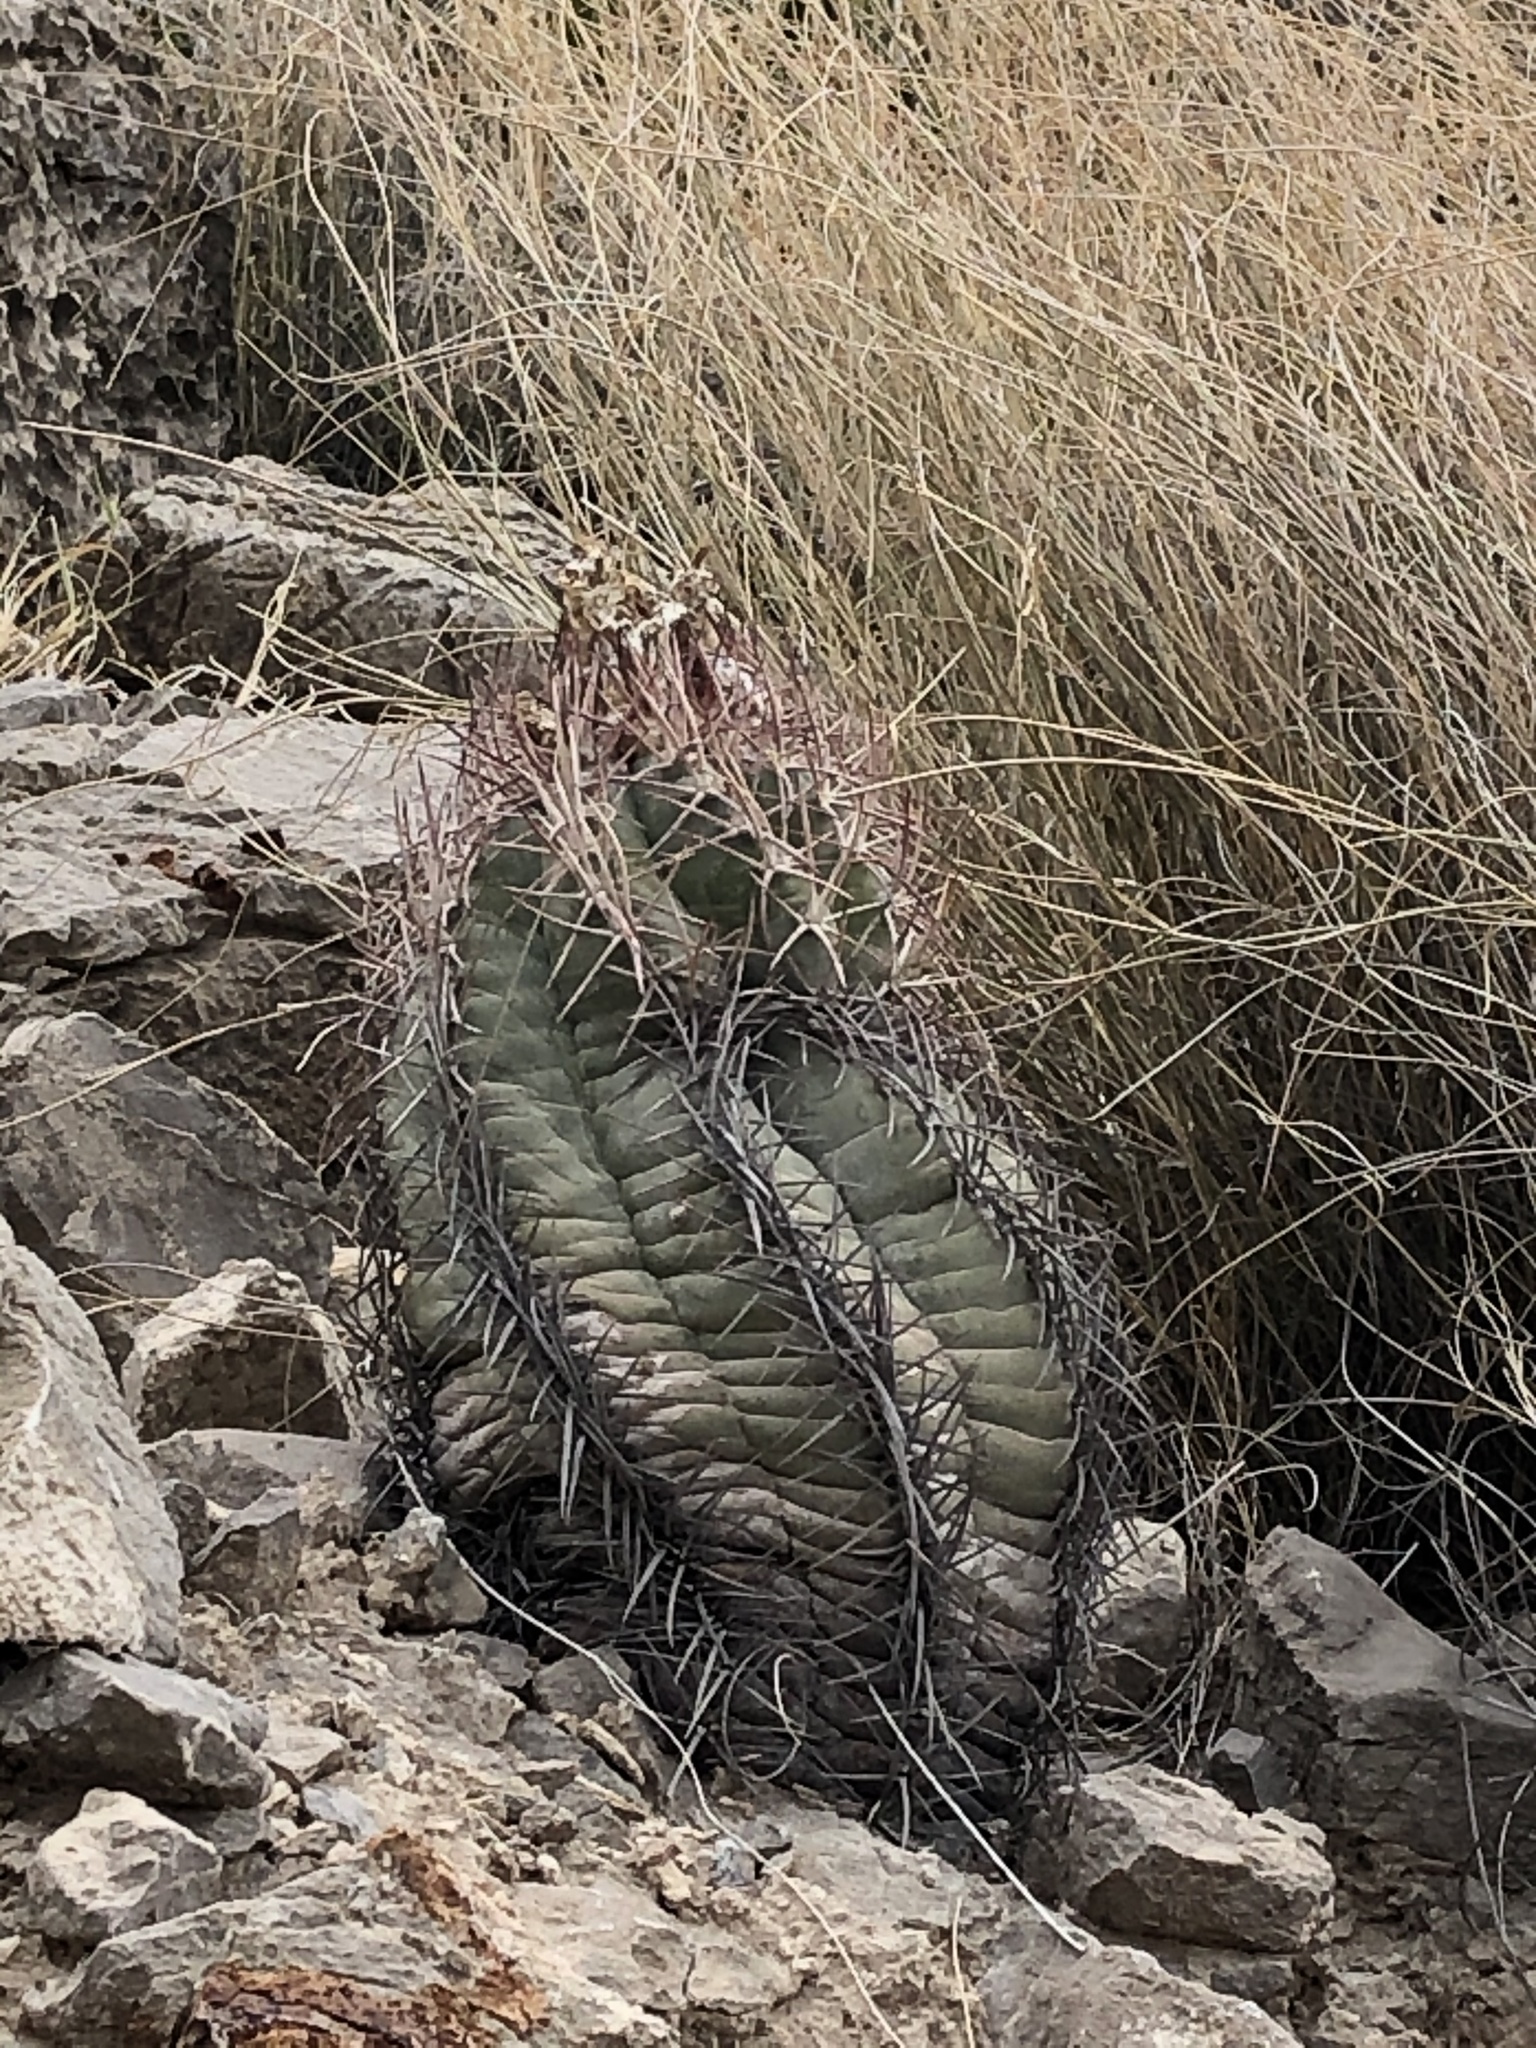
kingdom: Plantae
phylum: Tracheophyta
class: Magnoliopsida
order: Caryophyllales
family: Cactaceae
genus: Echinocactus
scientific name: Echinocactus horizonthalonius
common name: Devilshead
